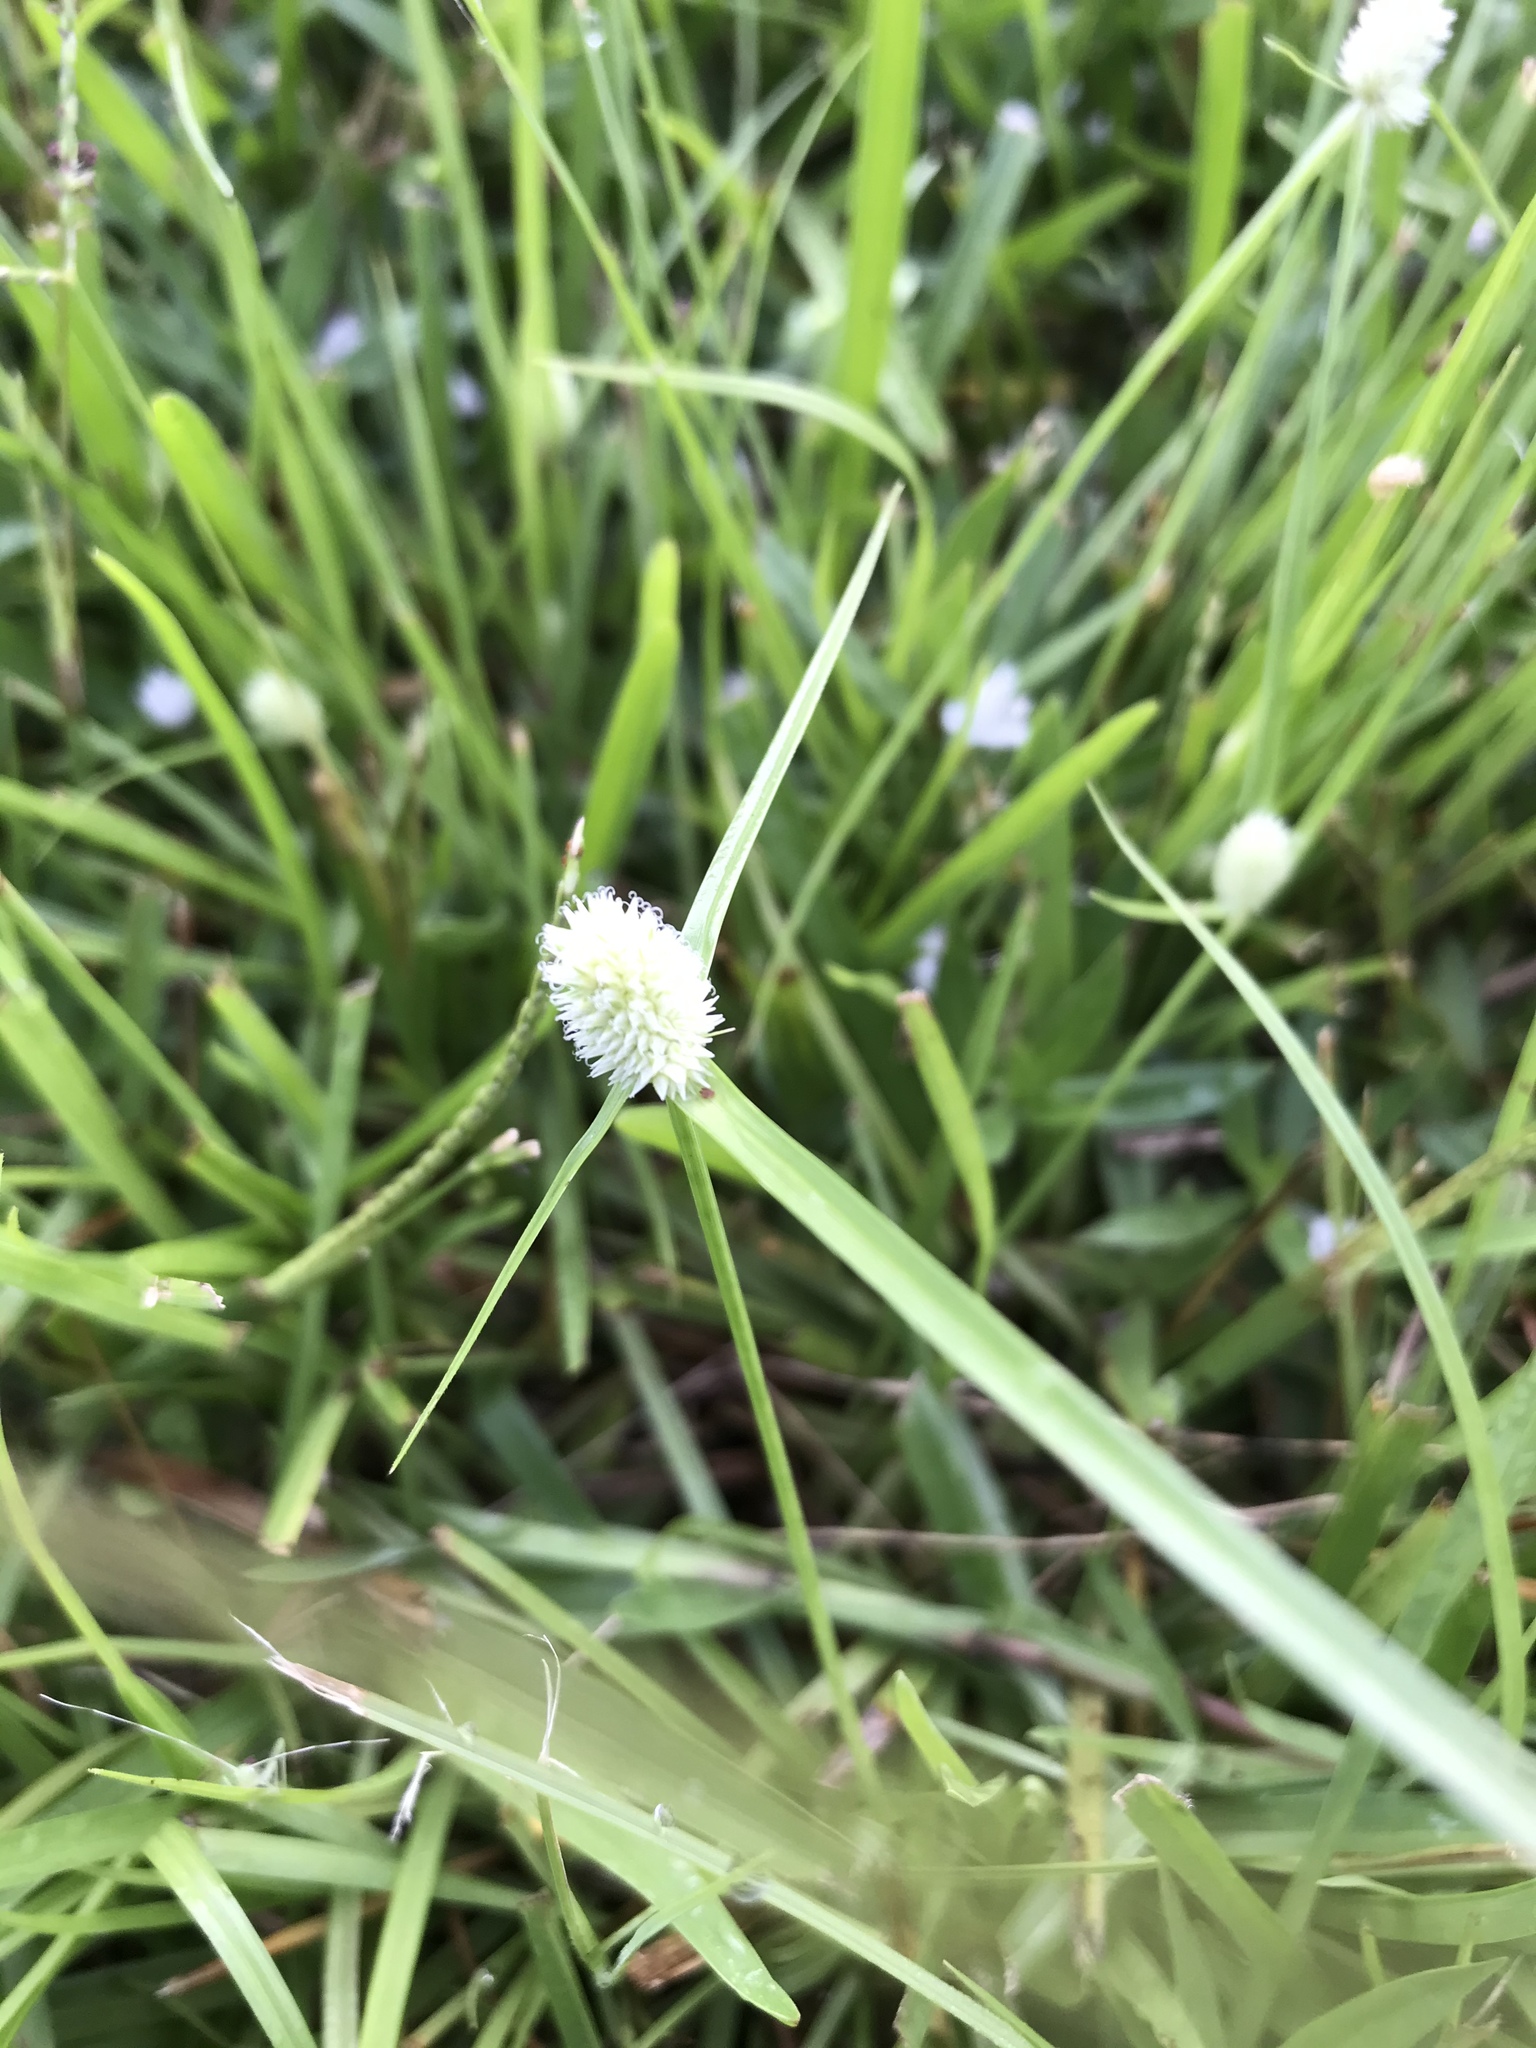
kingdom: Plantae
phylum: Tracheophyta
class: Liliopsida
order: Poales
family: Cyperaceae
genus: Cyperus
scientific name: Cyperus sesquiflorus
